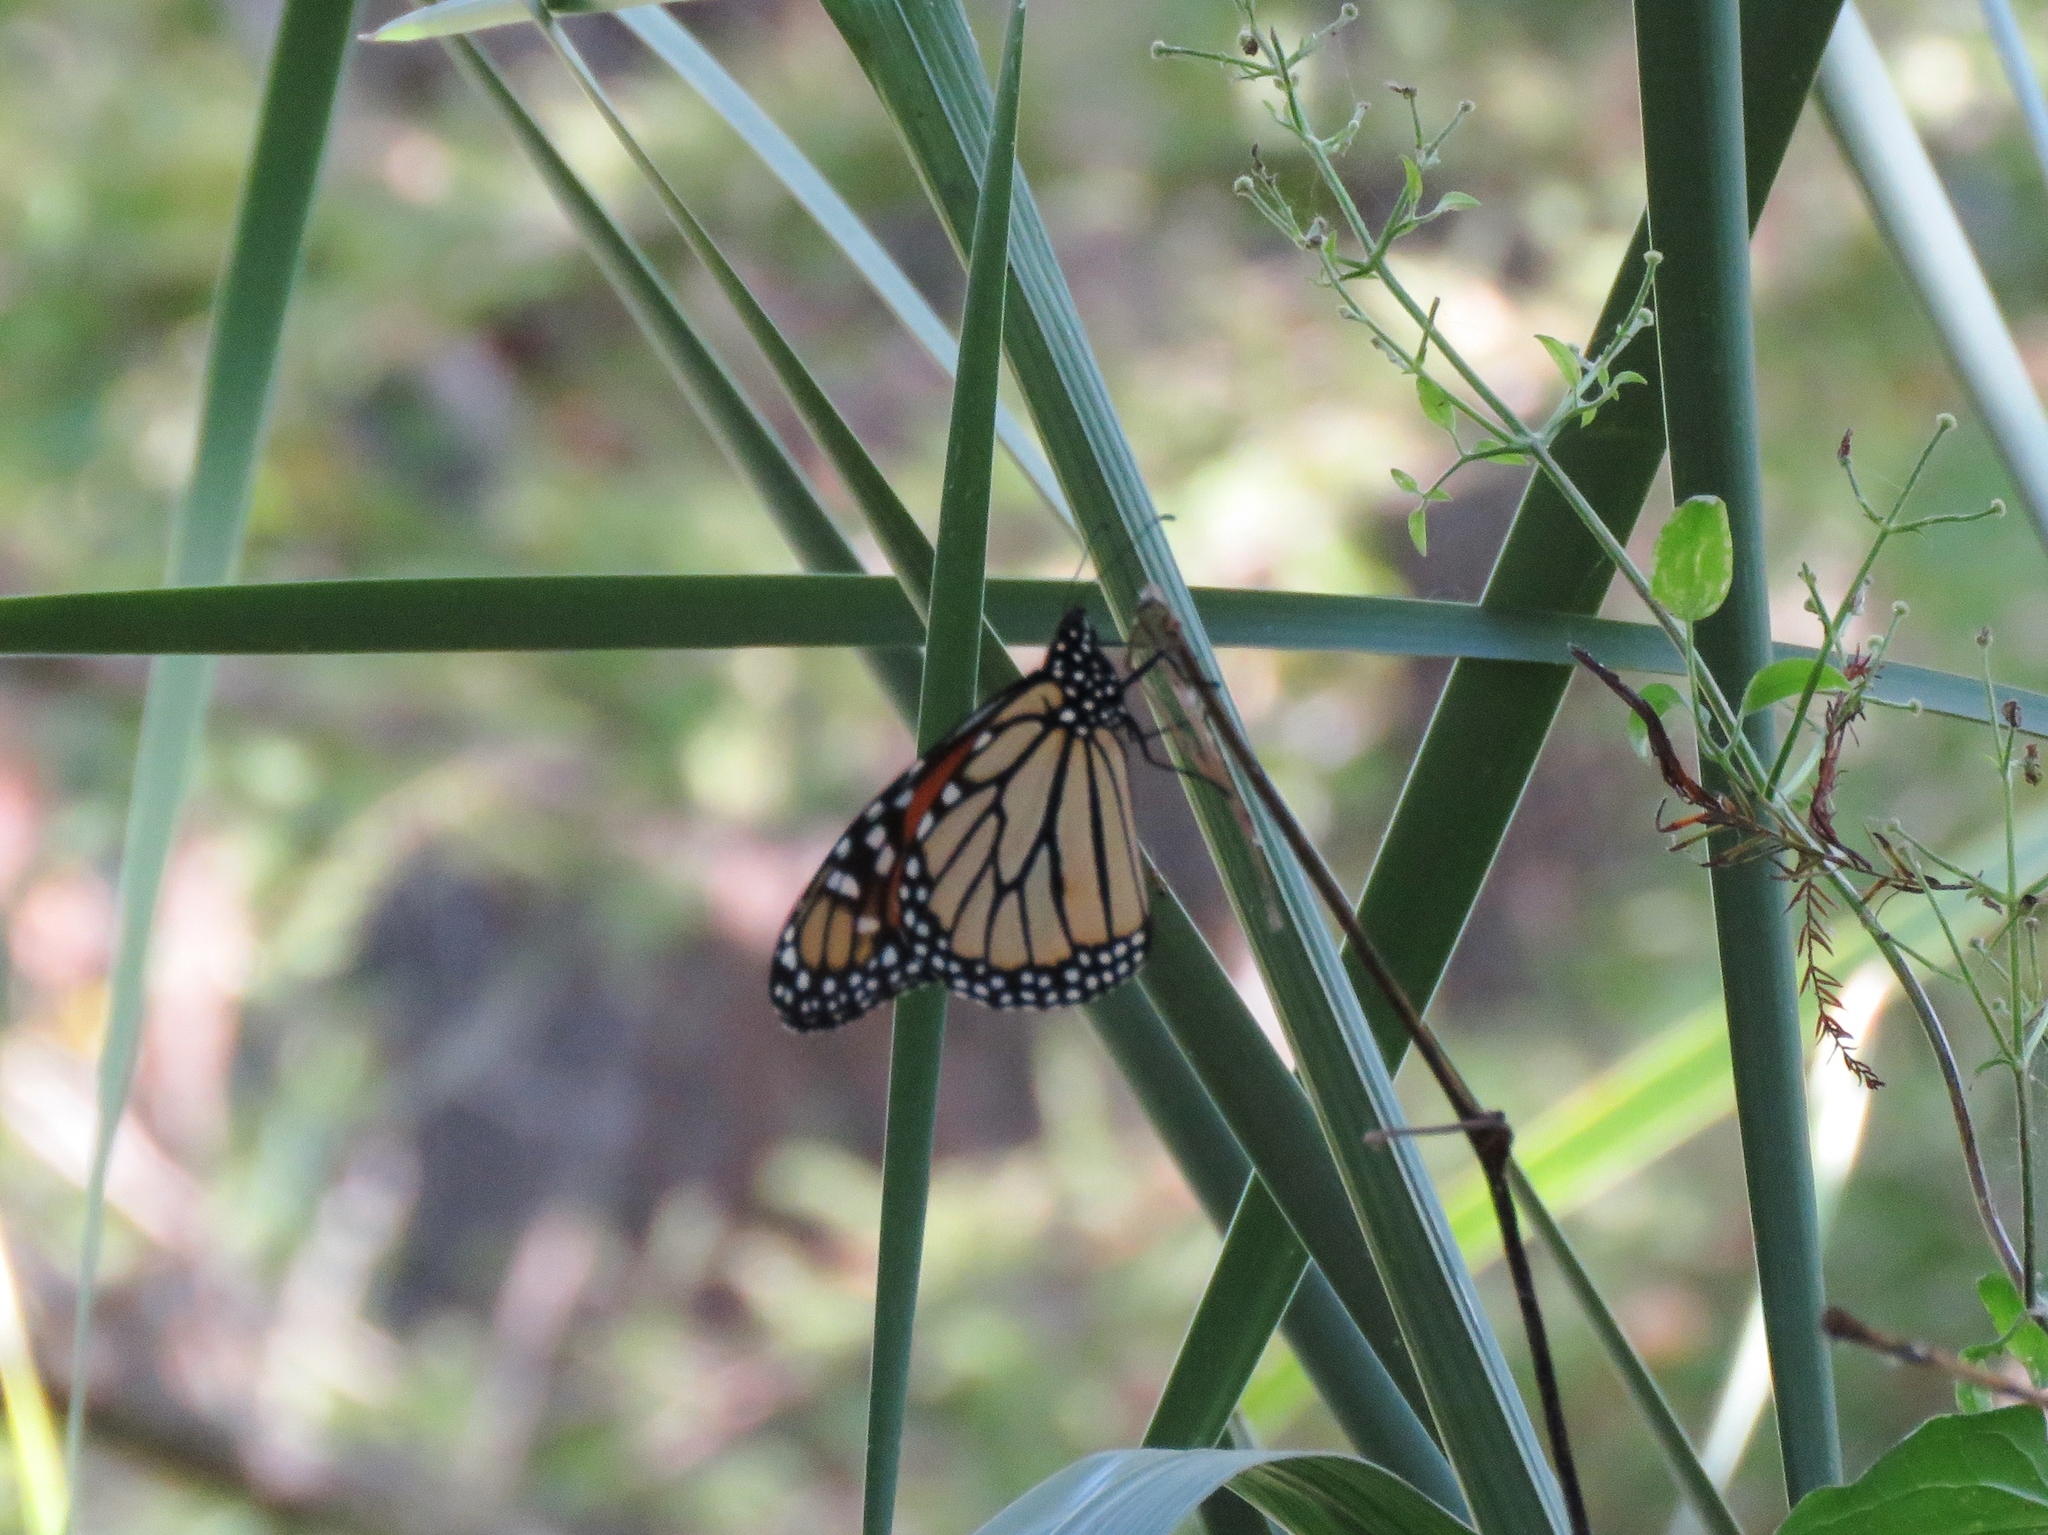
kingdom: Animalia
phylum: Arthropoda
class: Insecta
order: Lepidoptera
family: Nymphalidae
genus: Danaus
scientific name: Danaus plexippus
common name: Monarch
